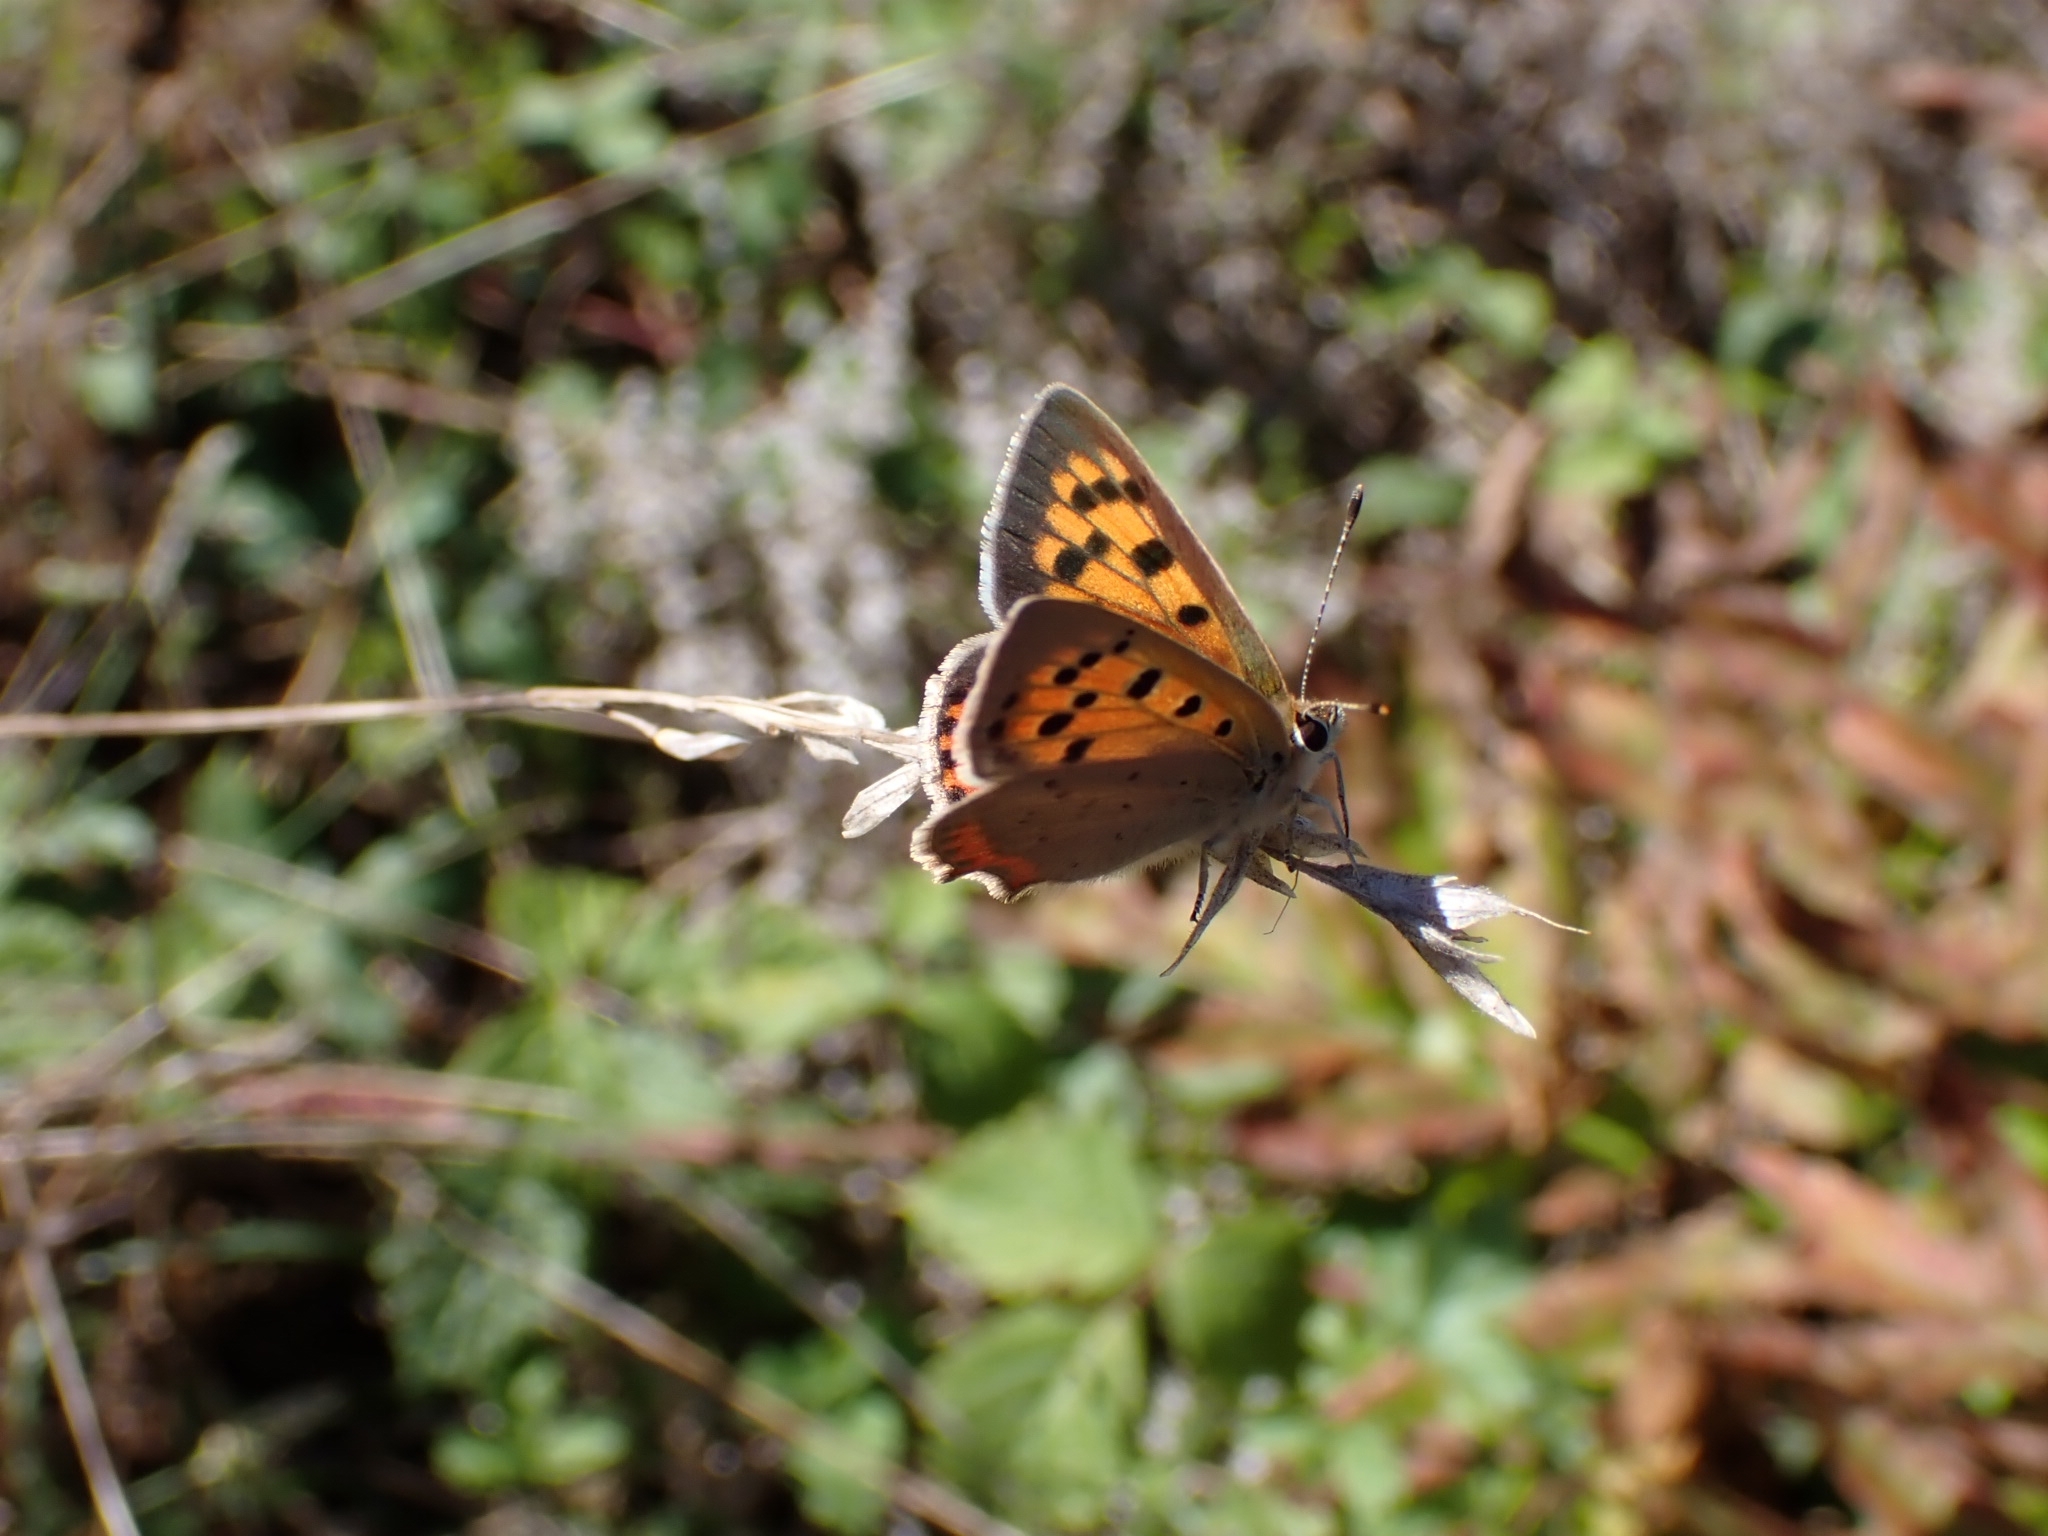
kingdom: Animalia
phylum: Arthropoda
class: Insecta
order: Lepidoptera
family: Lycaenidae
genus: Lycaena
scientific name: Lycaena phlaeas
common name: Small copper
